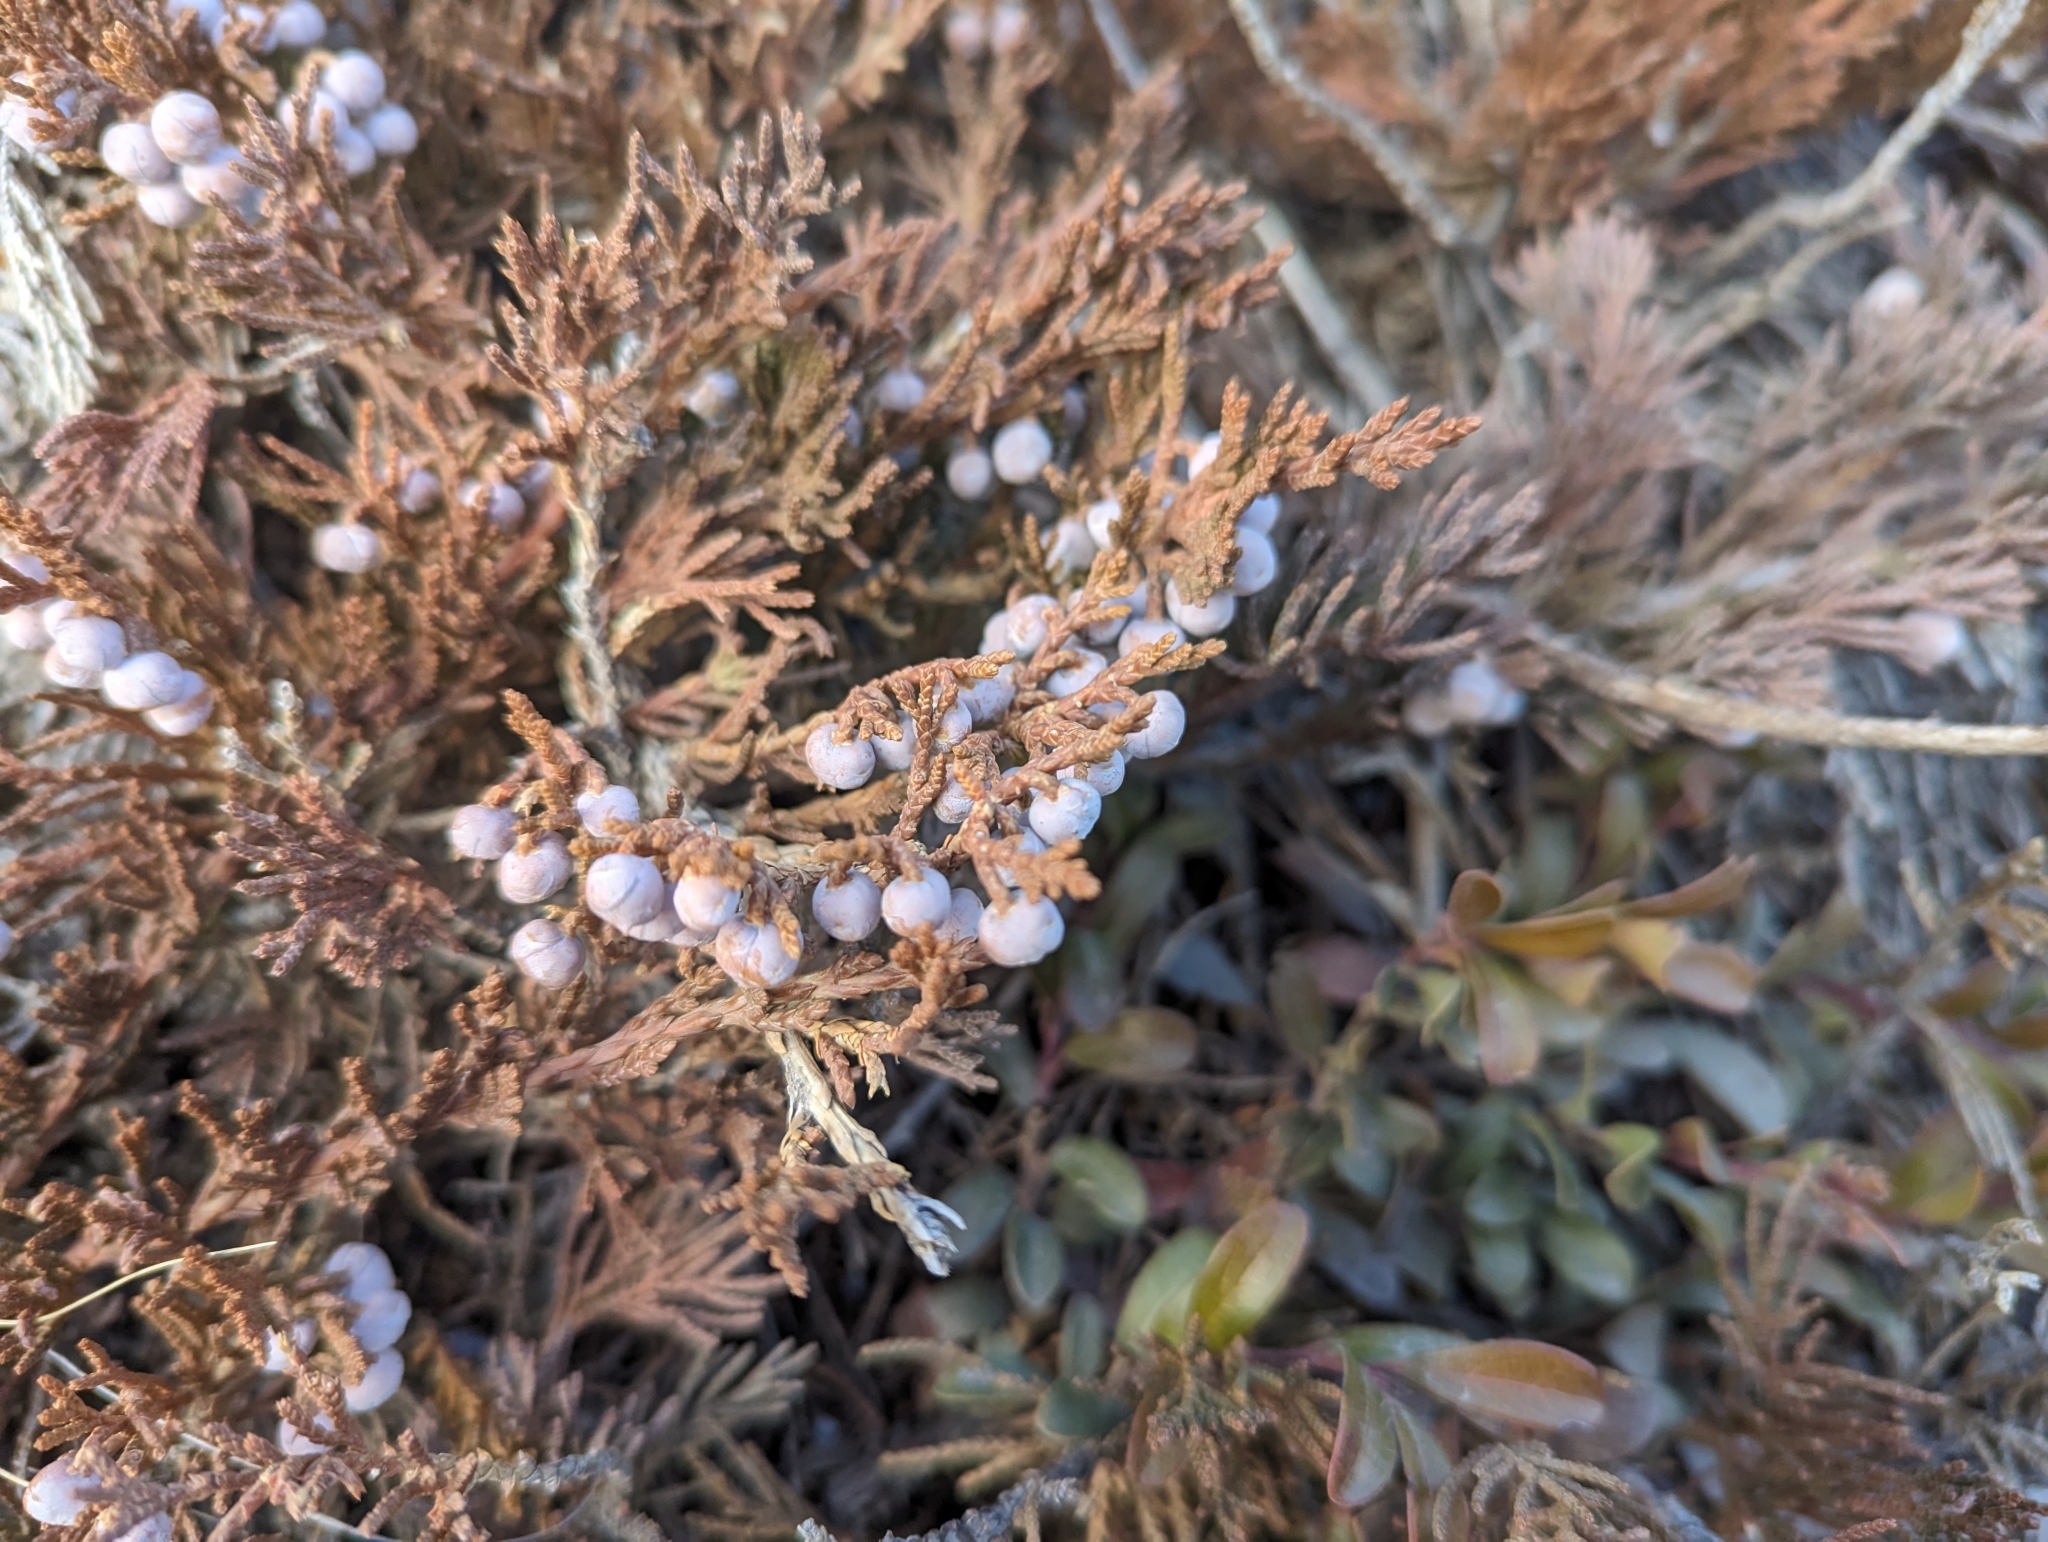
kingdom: Plantae
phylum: Tracheophyta
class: Pinopsida
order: Pinales
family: Cupressaceae
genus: Juniperus
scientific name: Juniperus horizontalis
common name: Creeping juniper
